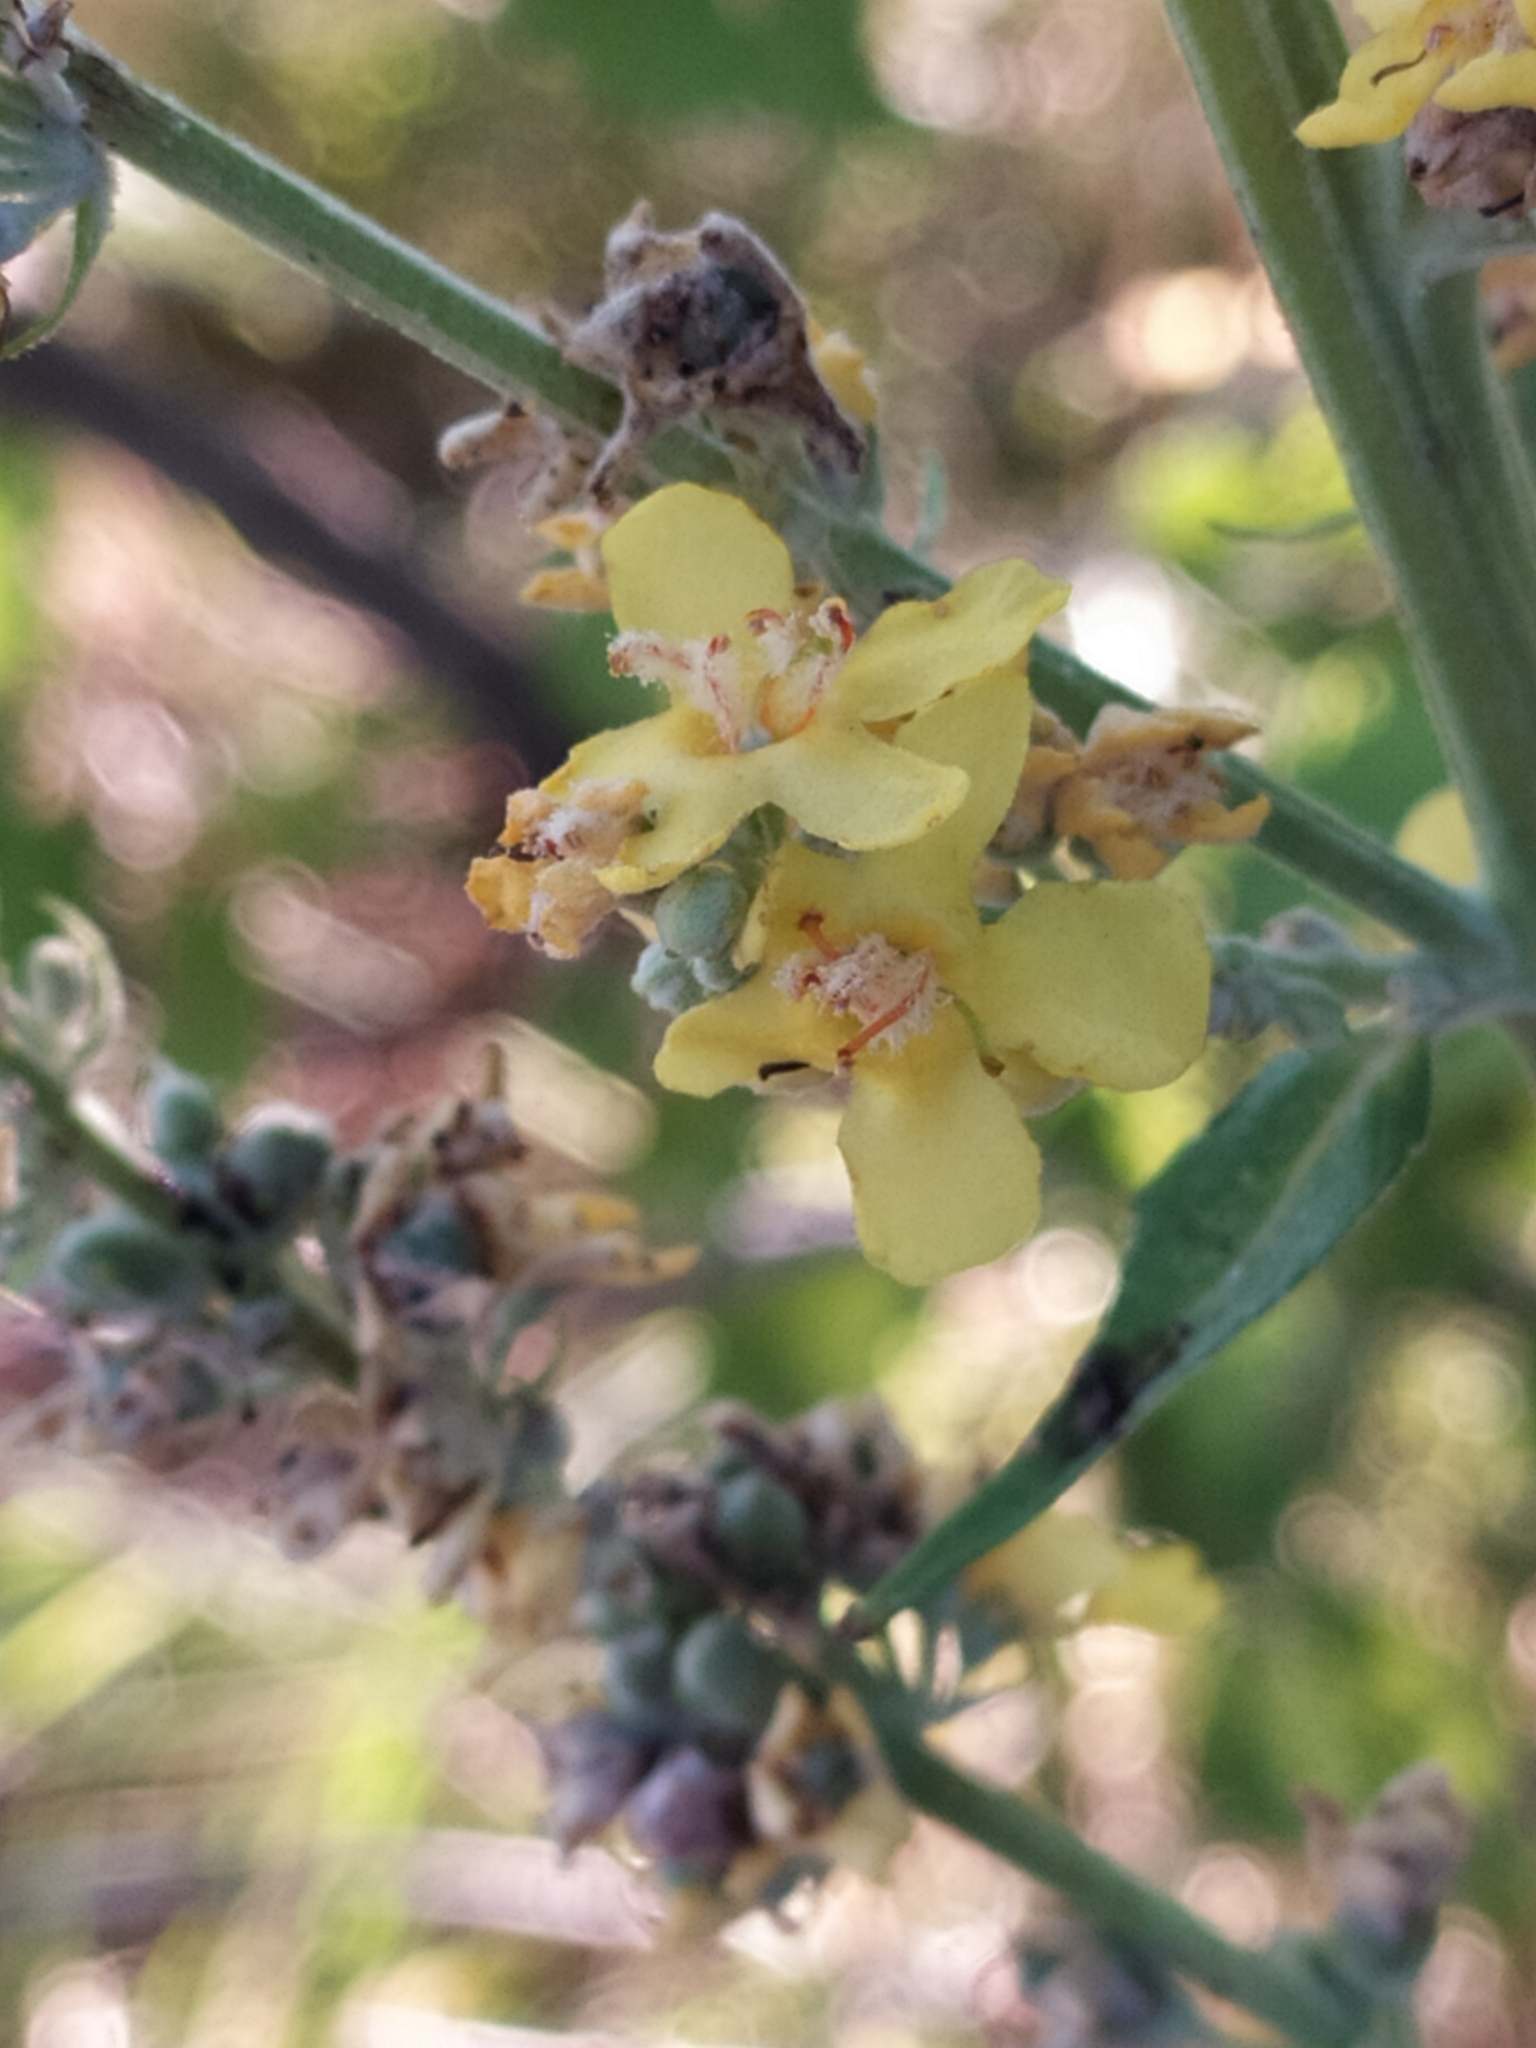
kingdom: Plantae
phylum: Tracheophyta
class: Magnoliopsida
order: Lamiales
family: Scrophulariaceae
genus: Verbascum
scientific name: Verbascum lychnitis
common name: White mullein
